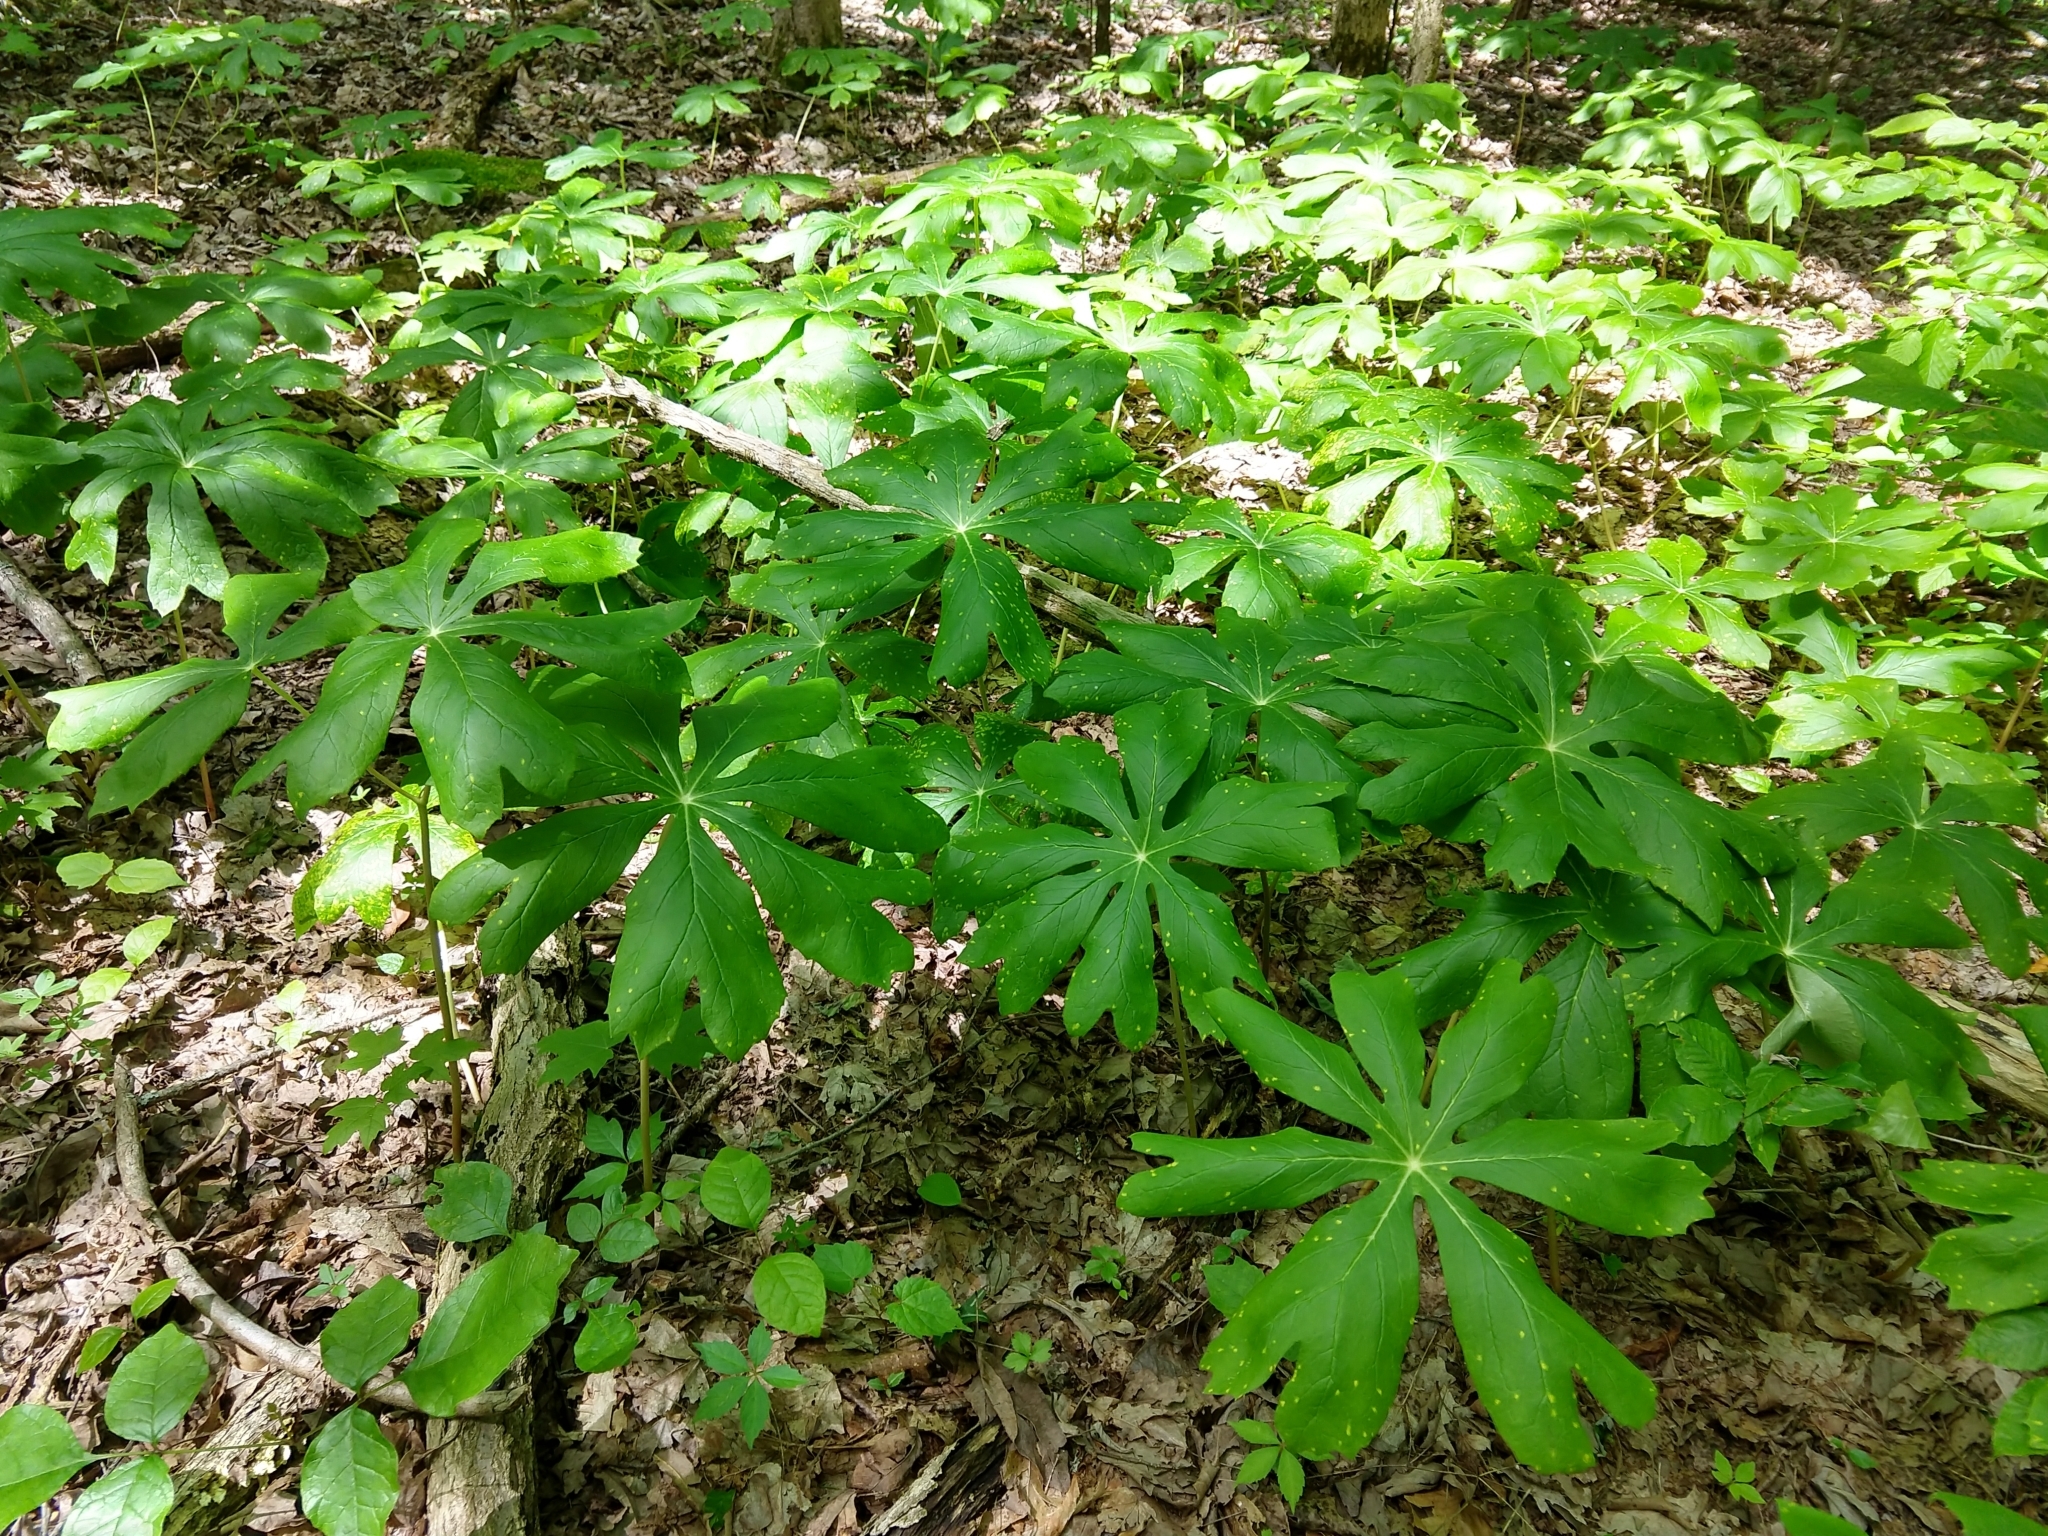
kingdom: Plantae
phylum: Tracheophyta
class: Magnoliopsida
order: Ranunculales
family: Berberidaceae
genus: Podophyllum
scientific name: Podophyllum peltatum
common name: Wild mandrake
